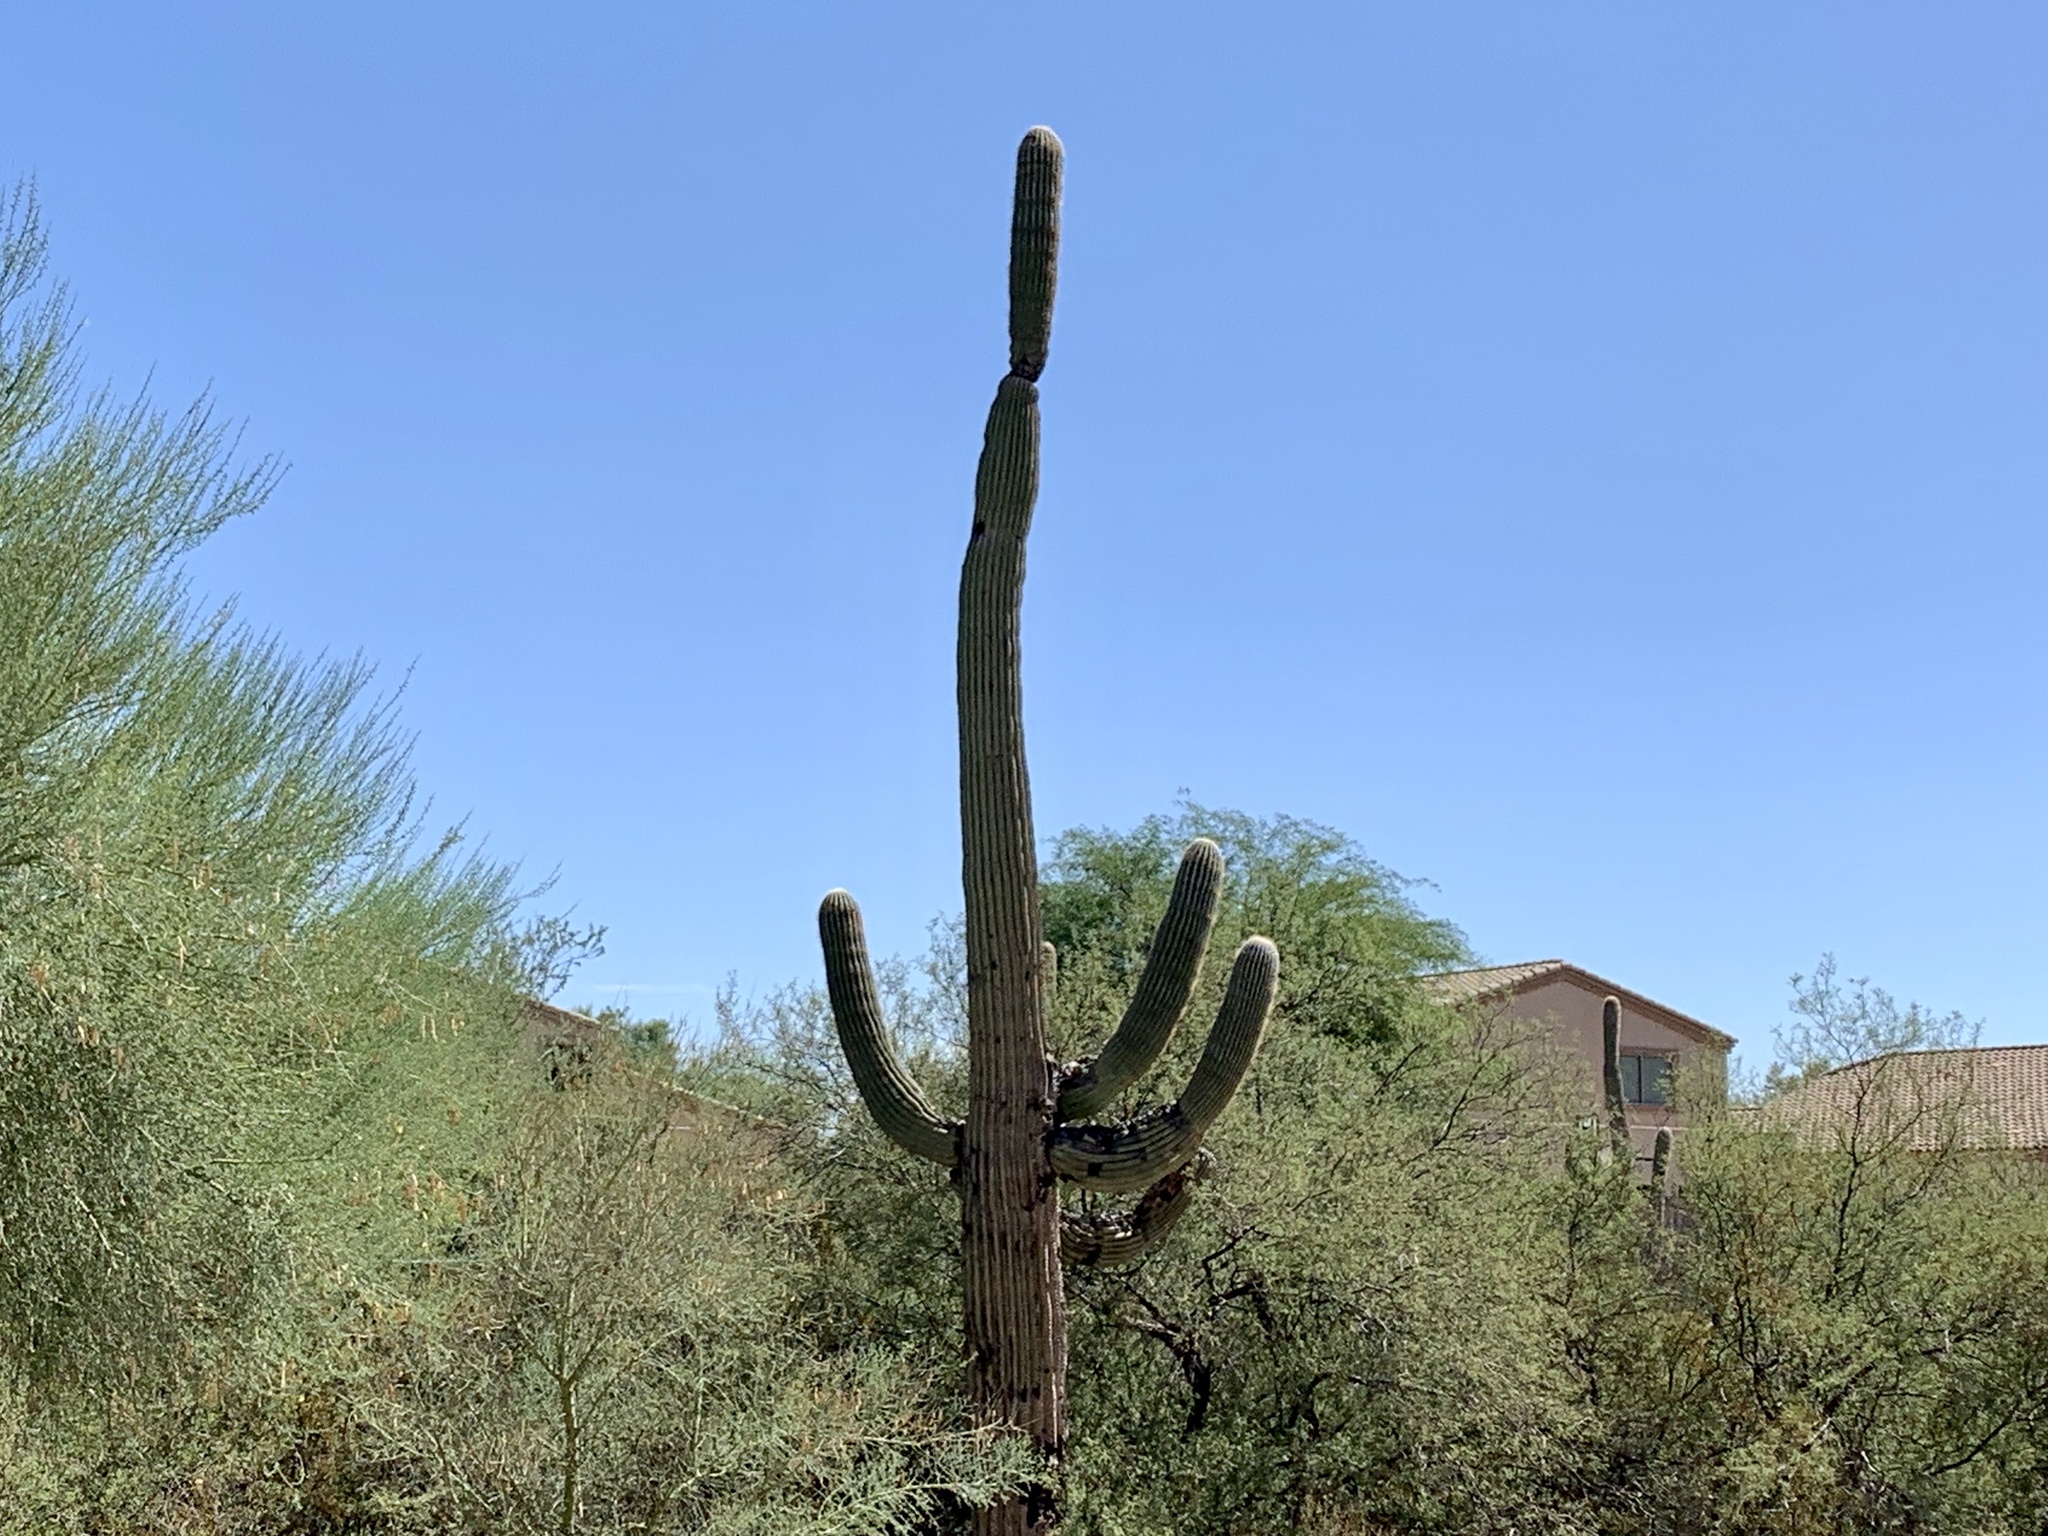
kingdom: Plantae
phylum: Tracheophyta
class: Magnoliopsida
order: Caryophyllales
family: Cactaceae
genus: Carnegiea
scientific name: Carnegiea gigantea
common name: Saguaro
